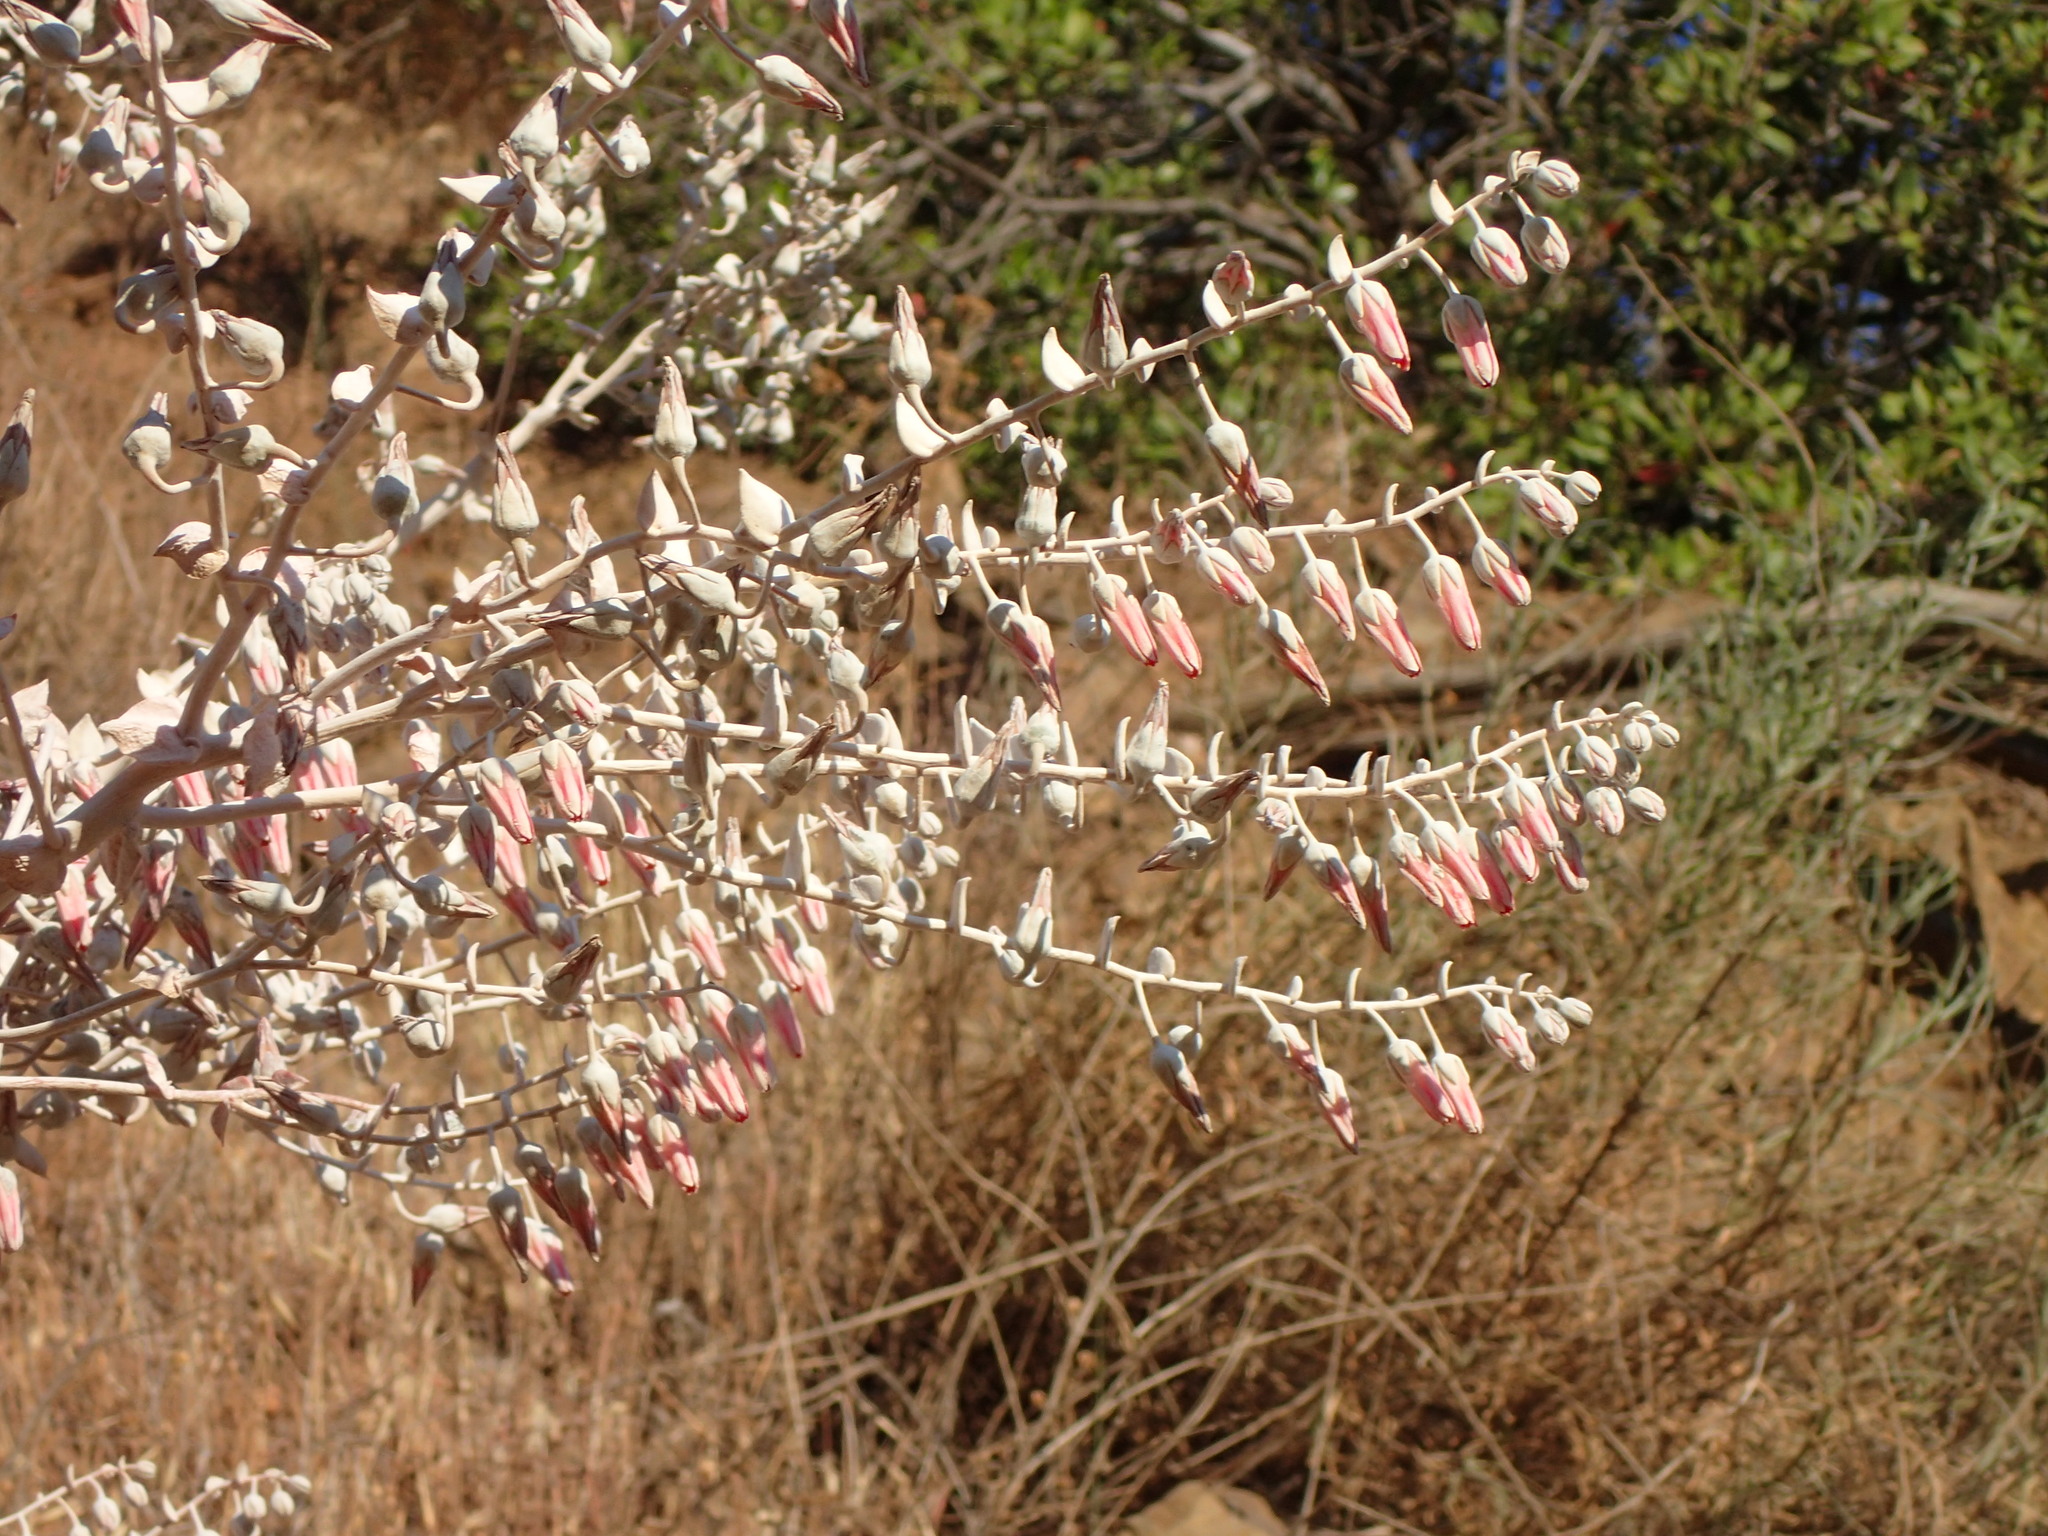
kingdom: Plantae
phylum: Tracheophyta
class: Magnoliopsida
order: Saxifragales
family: Crassulaceae
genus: Dudleya
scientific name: Dudleya pulverulenta
